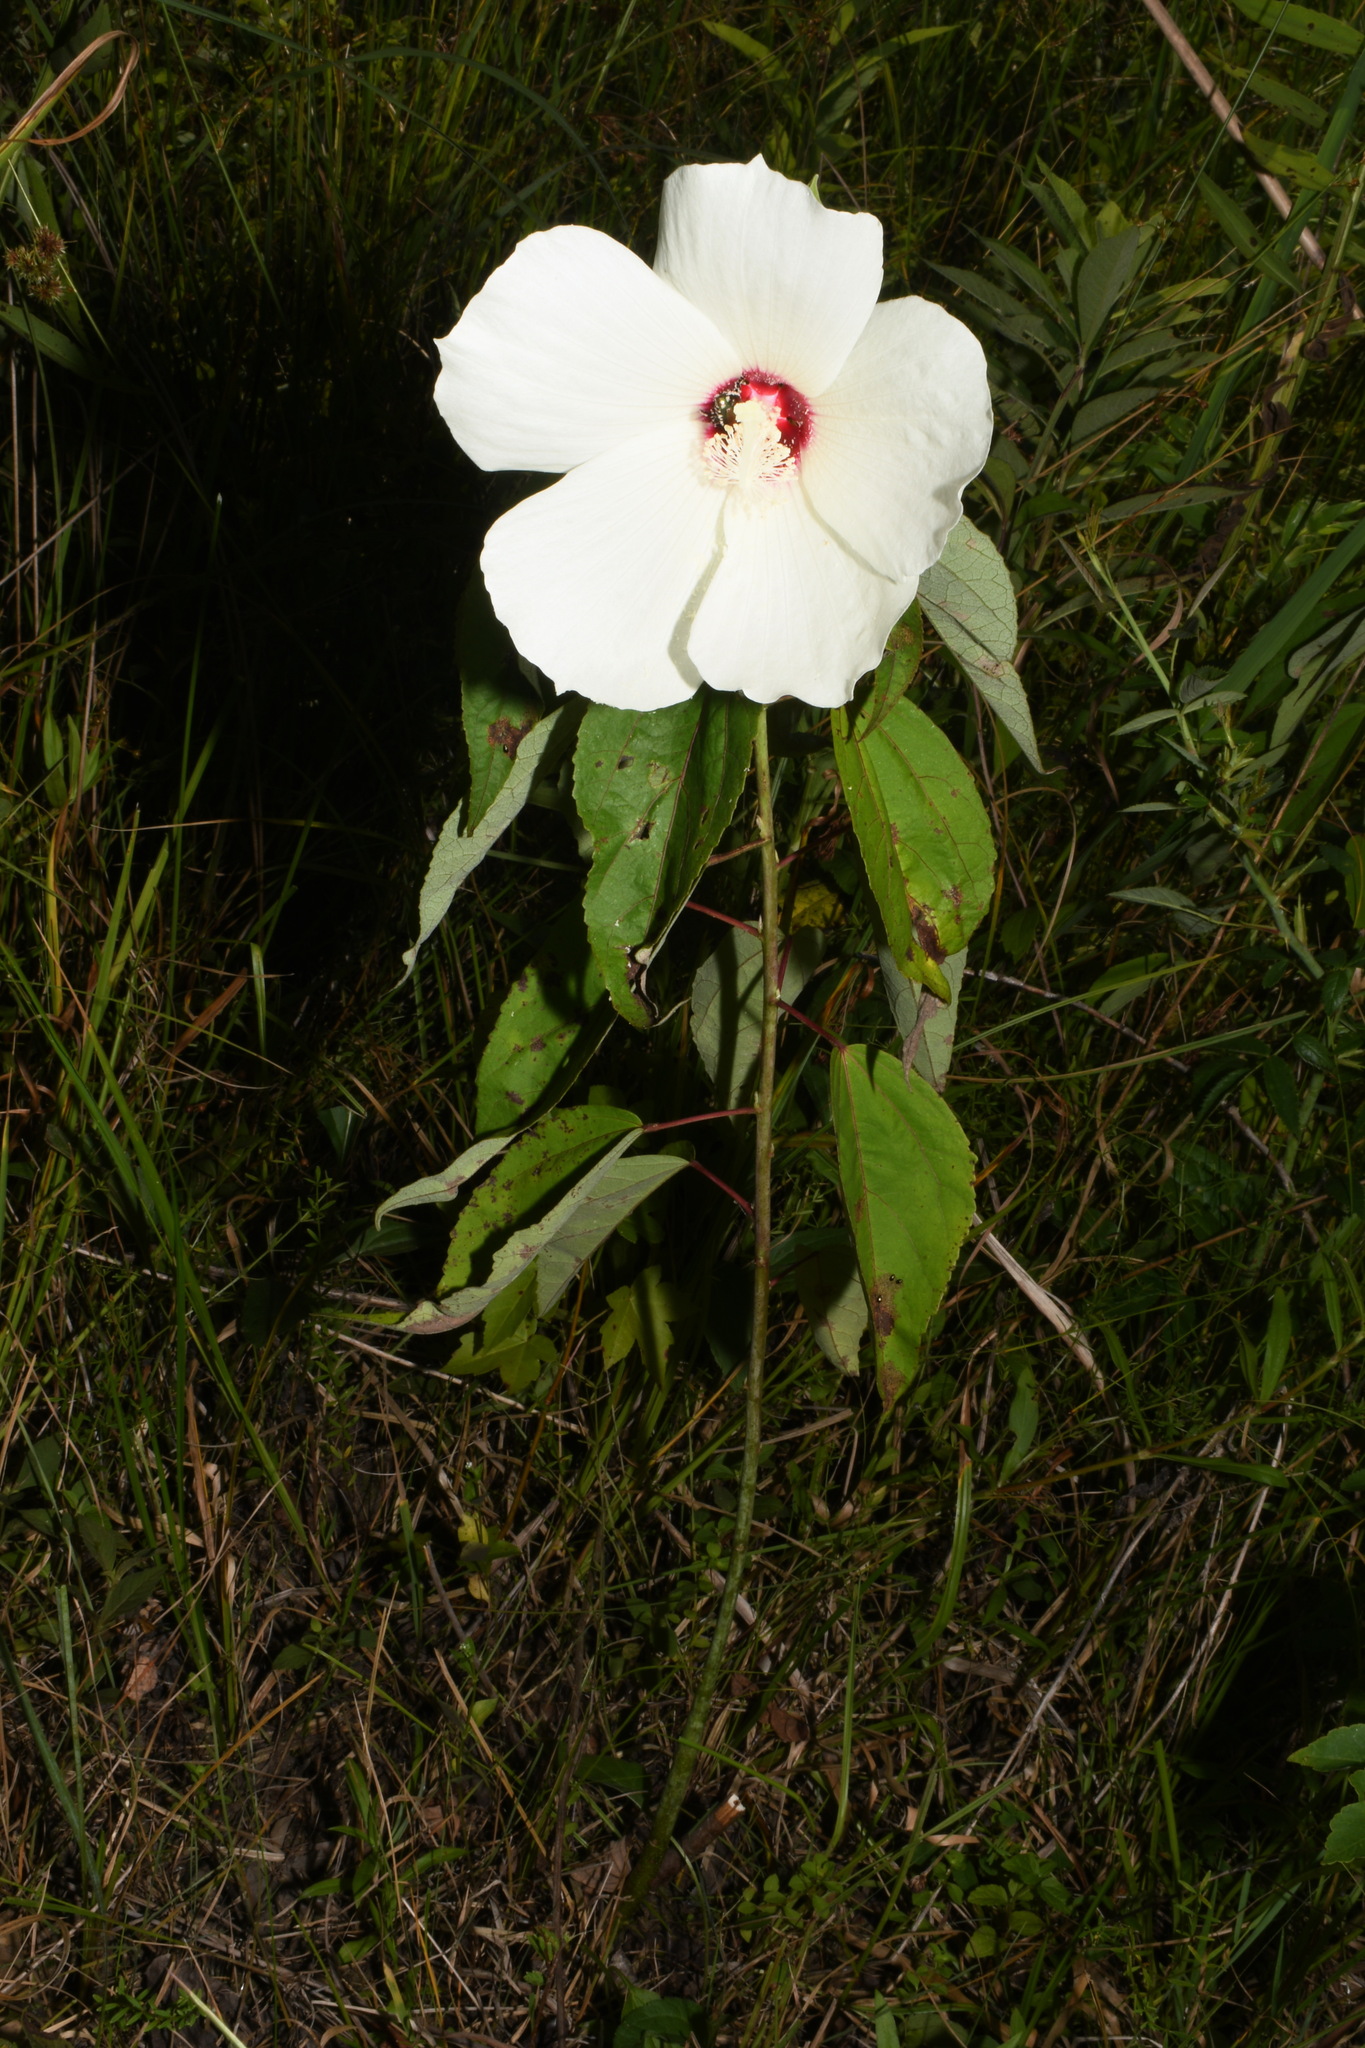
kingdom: Plantae
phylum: Tracheophyta
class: Magnoliopsida
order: Malvales
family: Malvaceae
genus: Hibiscus
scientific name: Hibiscus moscheutos
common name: Common rose-mallow
